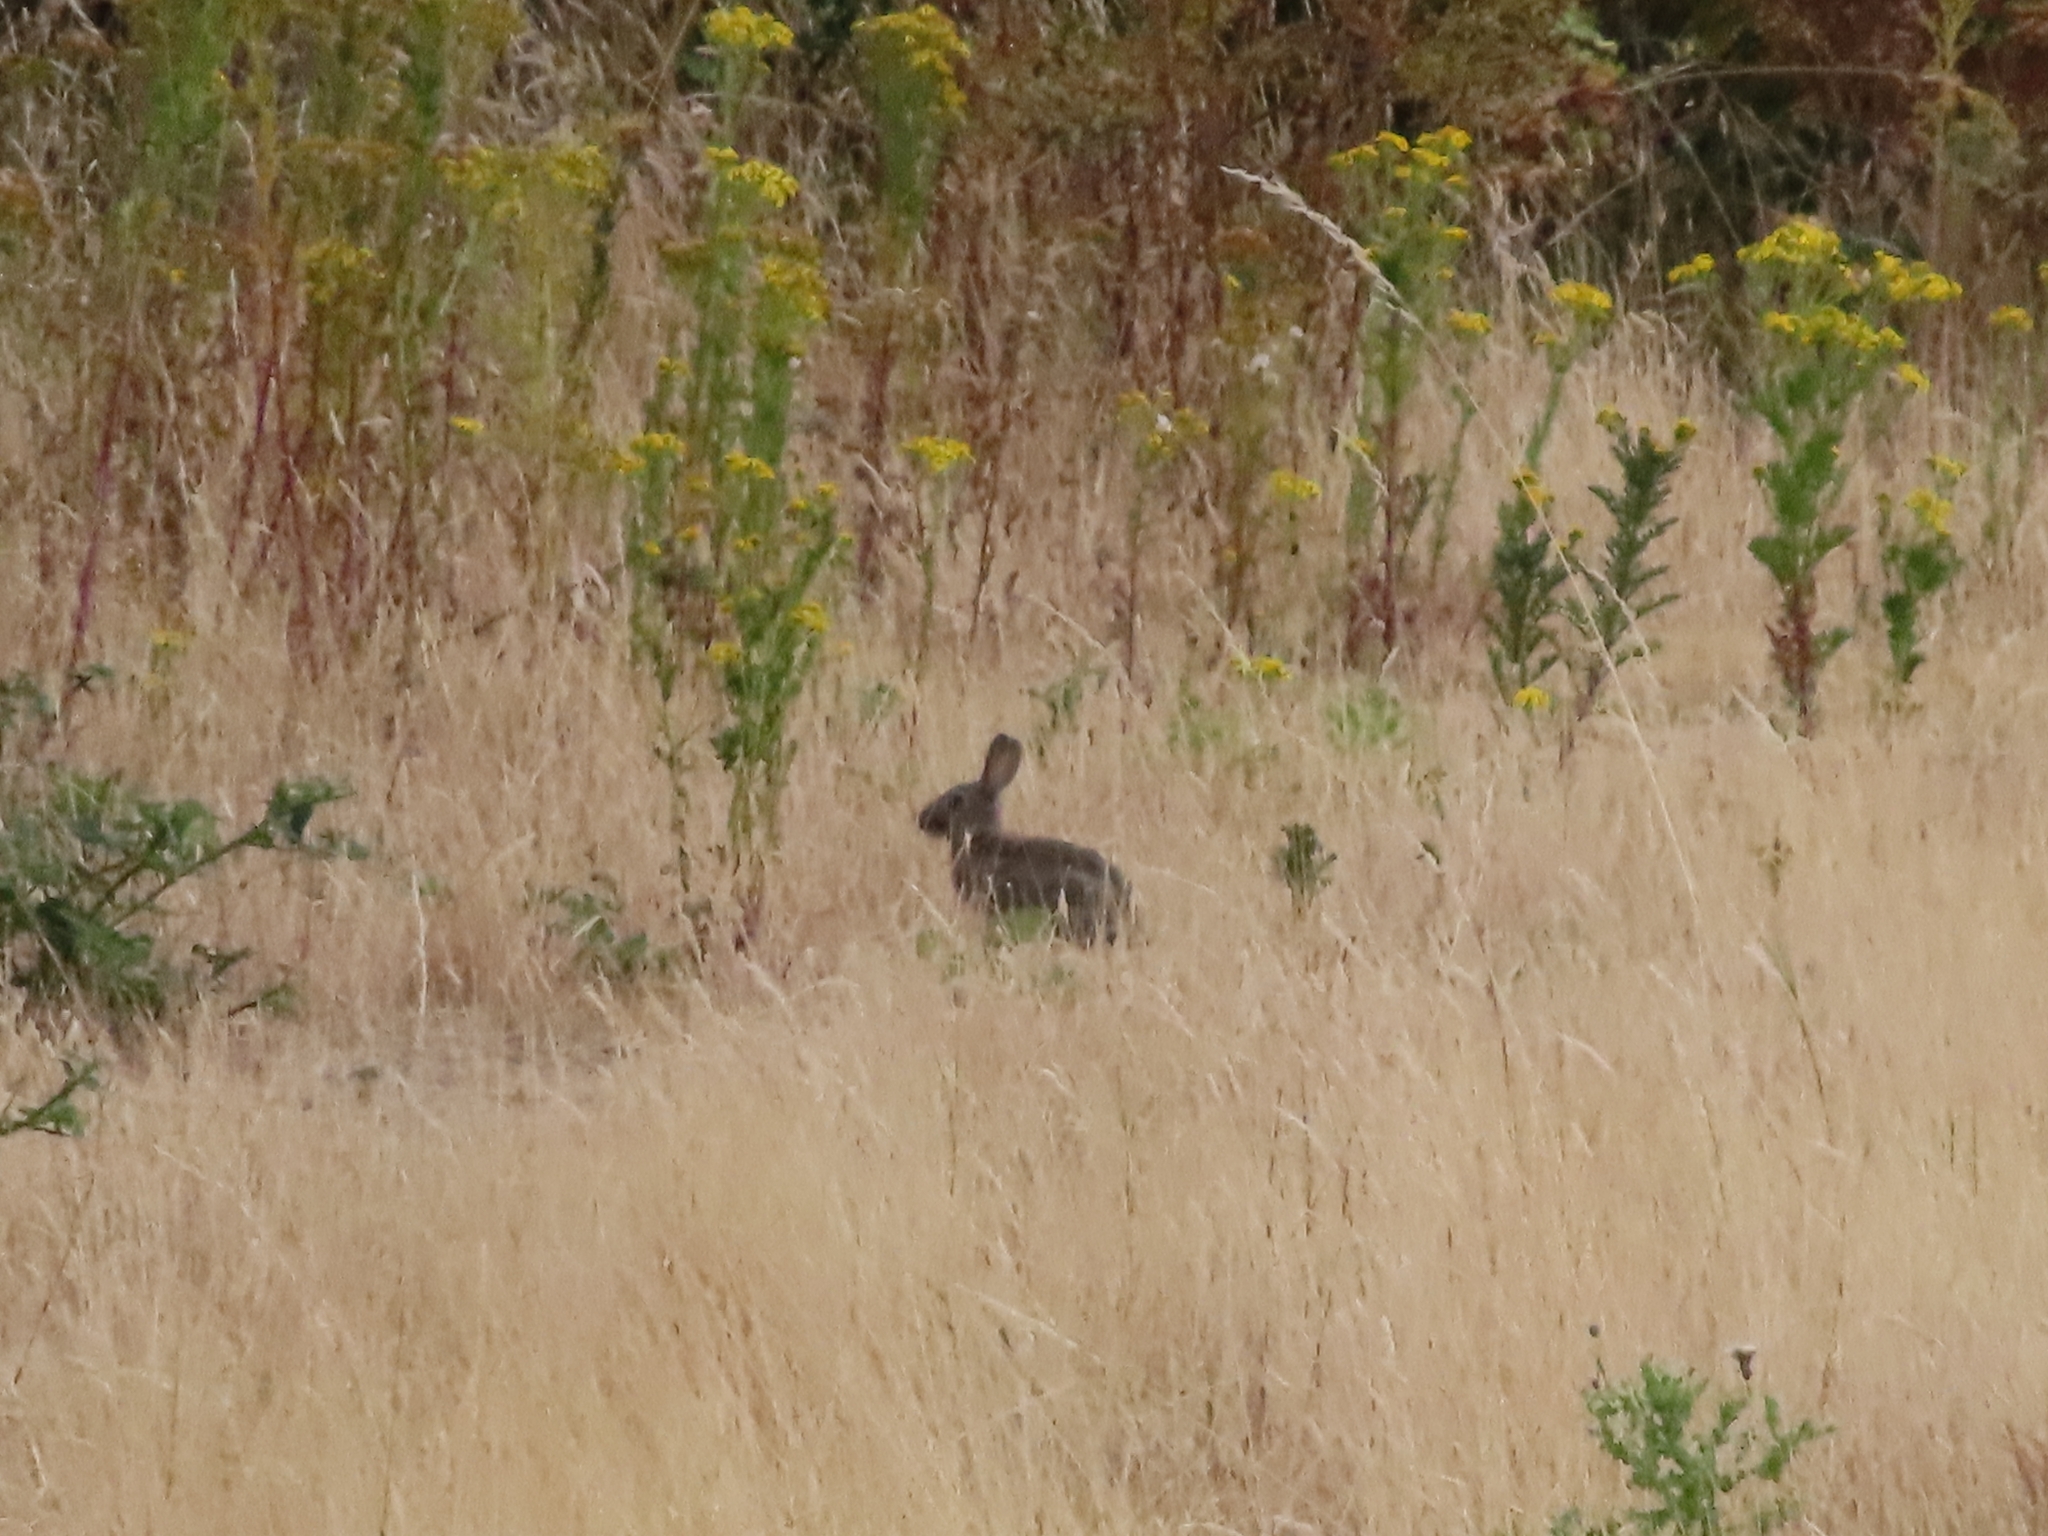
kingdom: Animalia
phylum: Chordata
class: Mammalia
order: Lagomorpha
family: Leporidae
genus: Oryctolagus
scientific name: Oryctolagus cuniculus
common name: European rabbit
